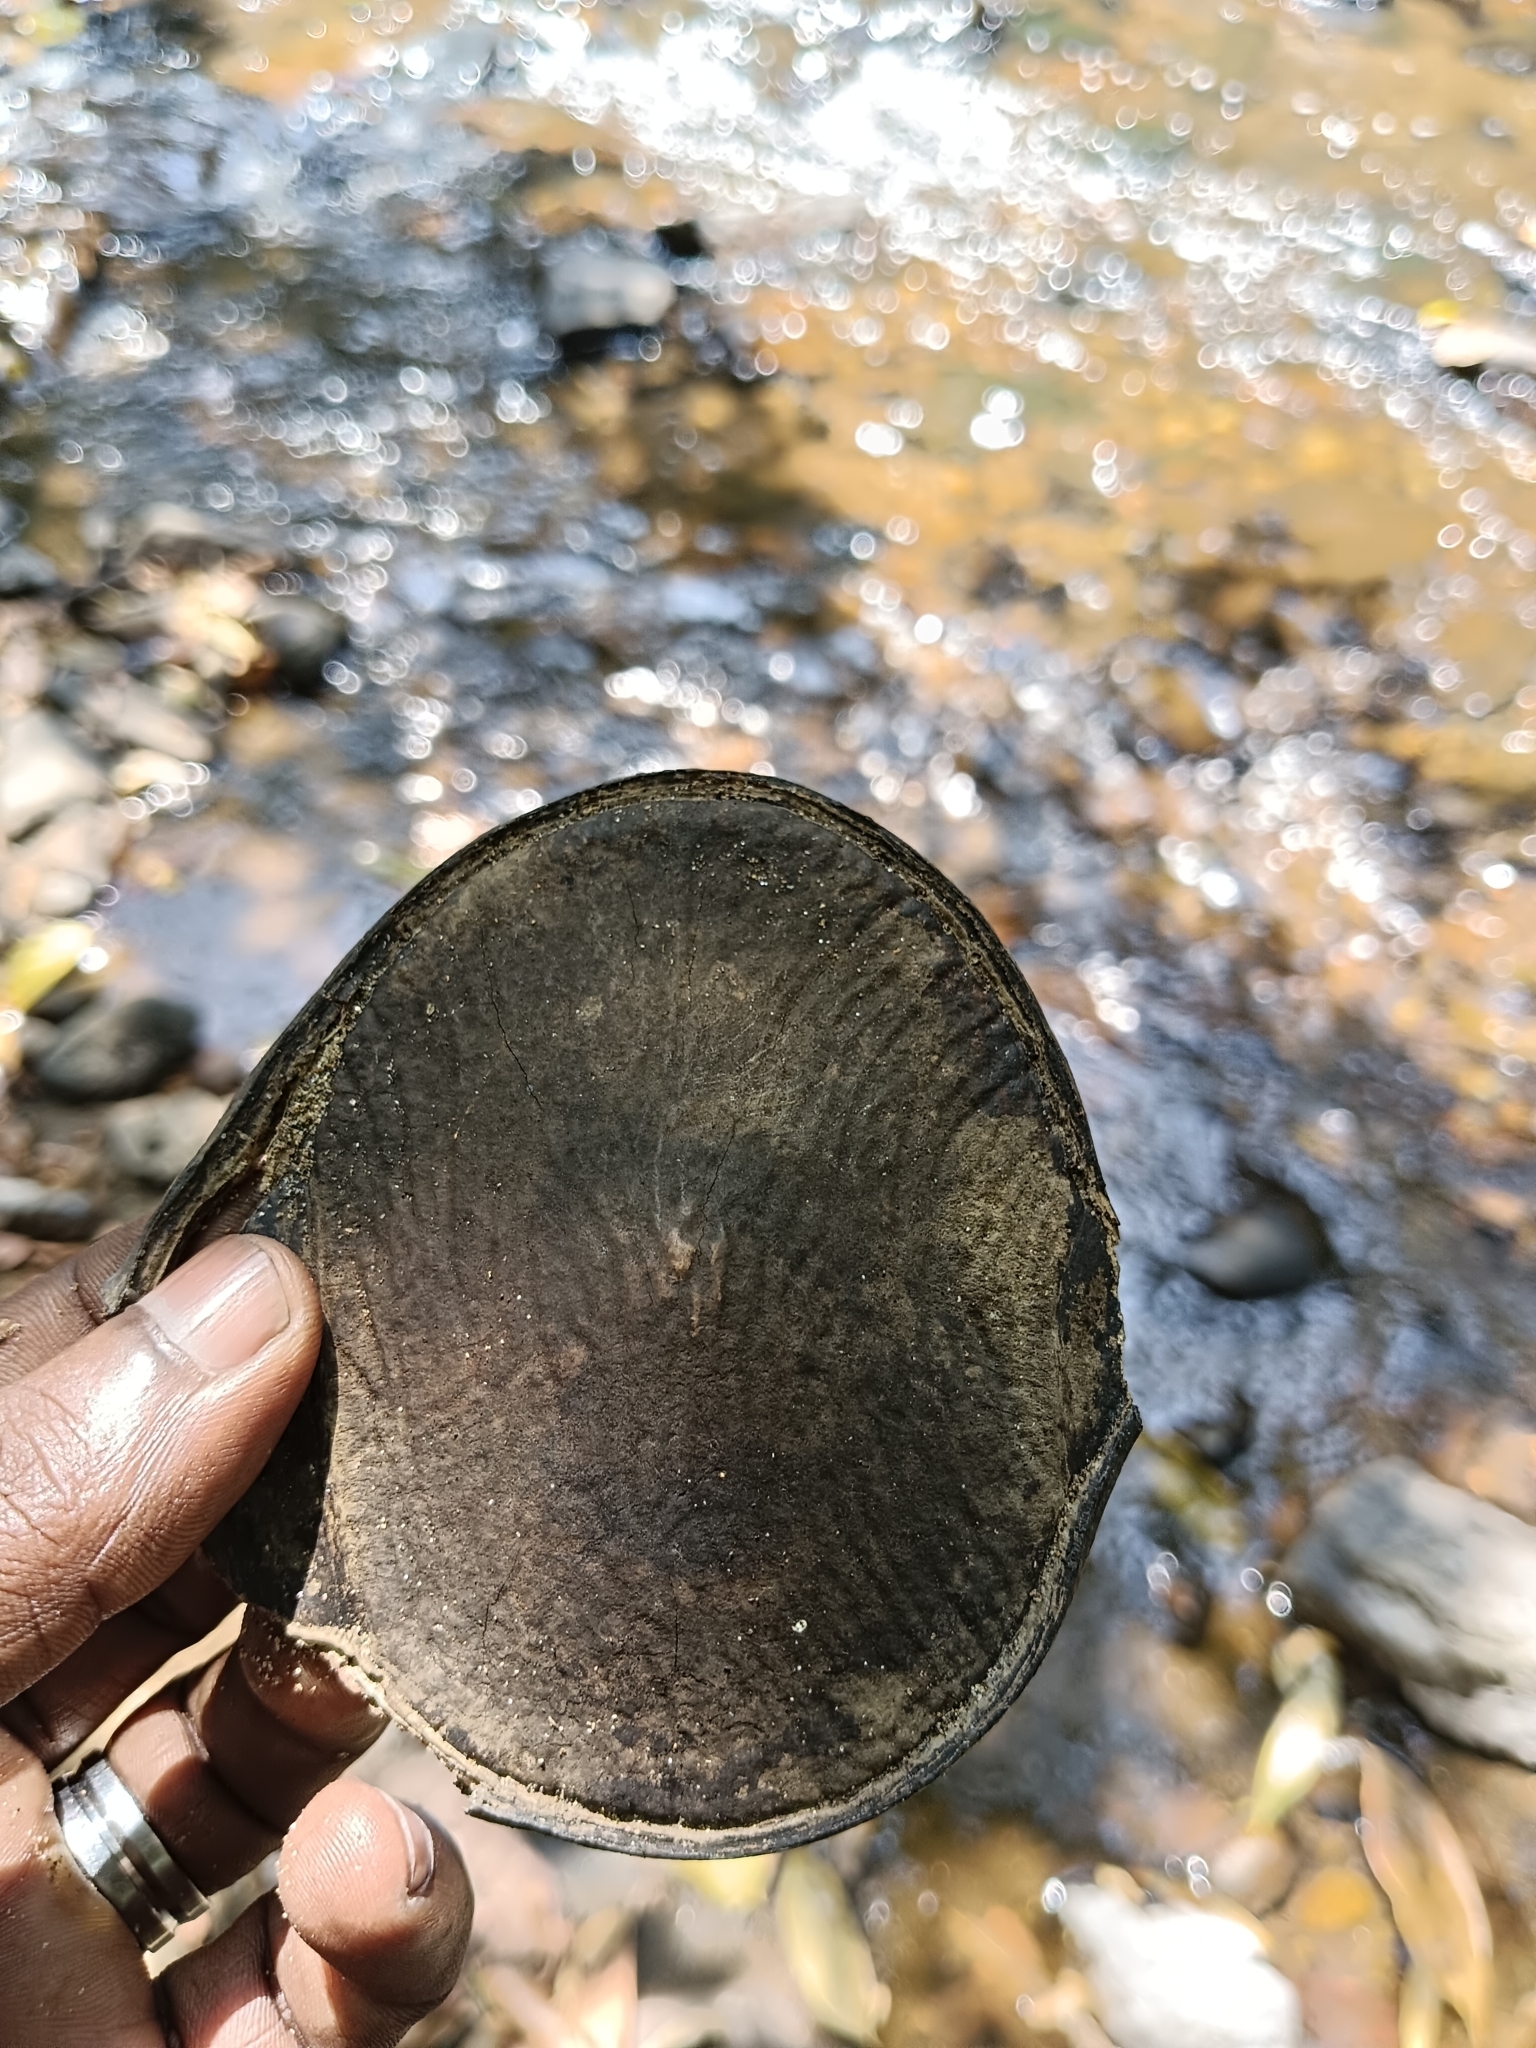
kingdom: Plantae
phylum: Tracheophyta
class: Magnoliopsida
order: Fabales
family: Fabaceae
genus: Entada
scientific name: Entada rheedei
